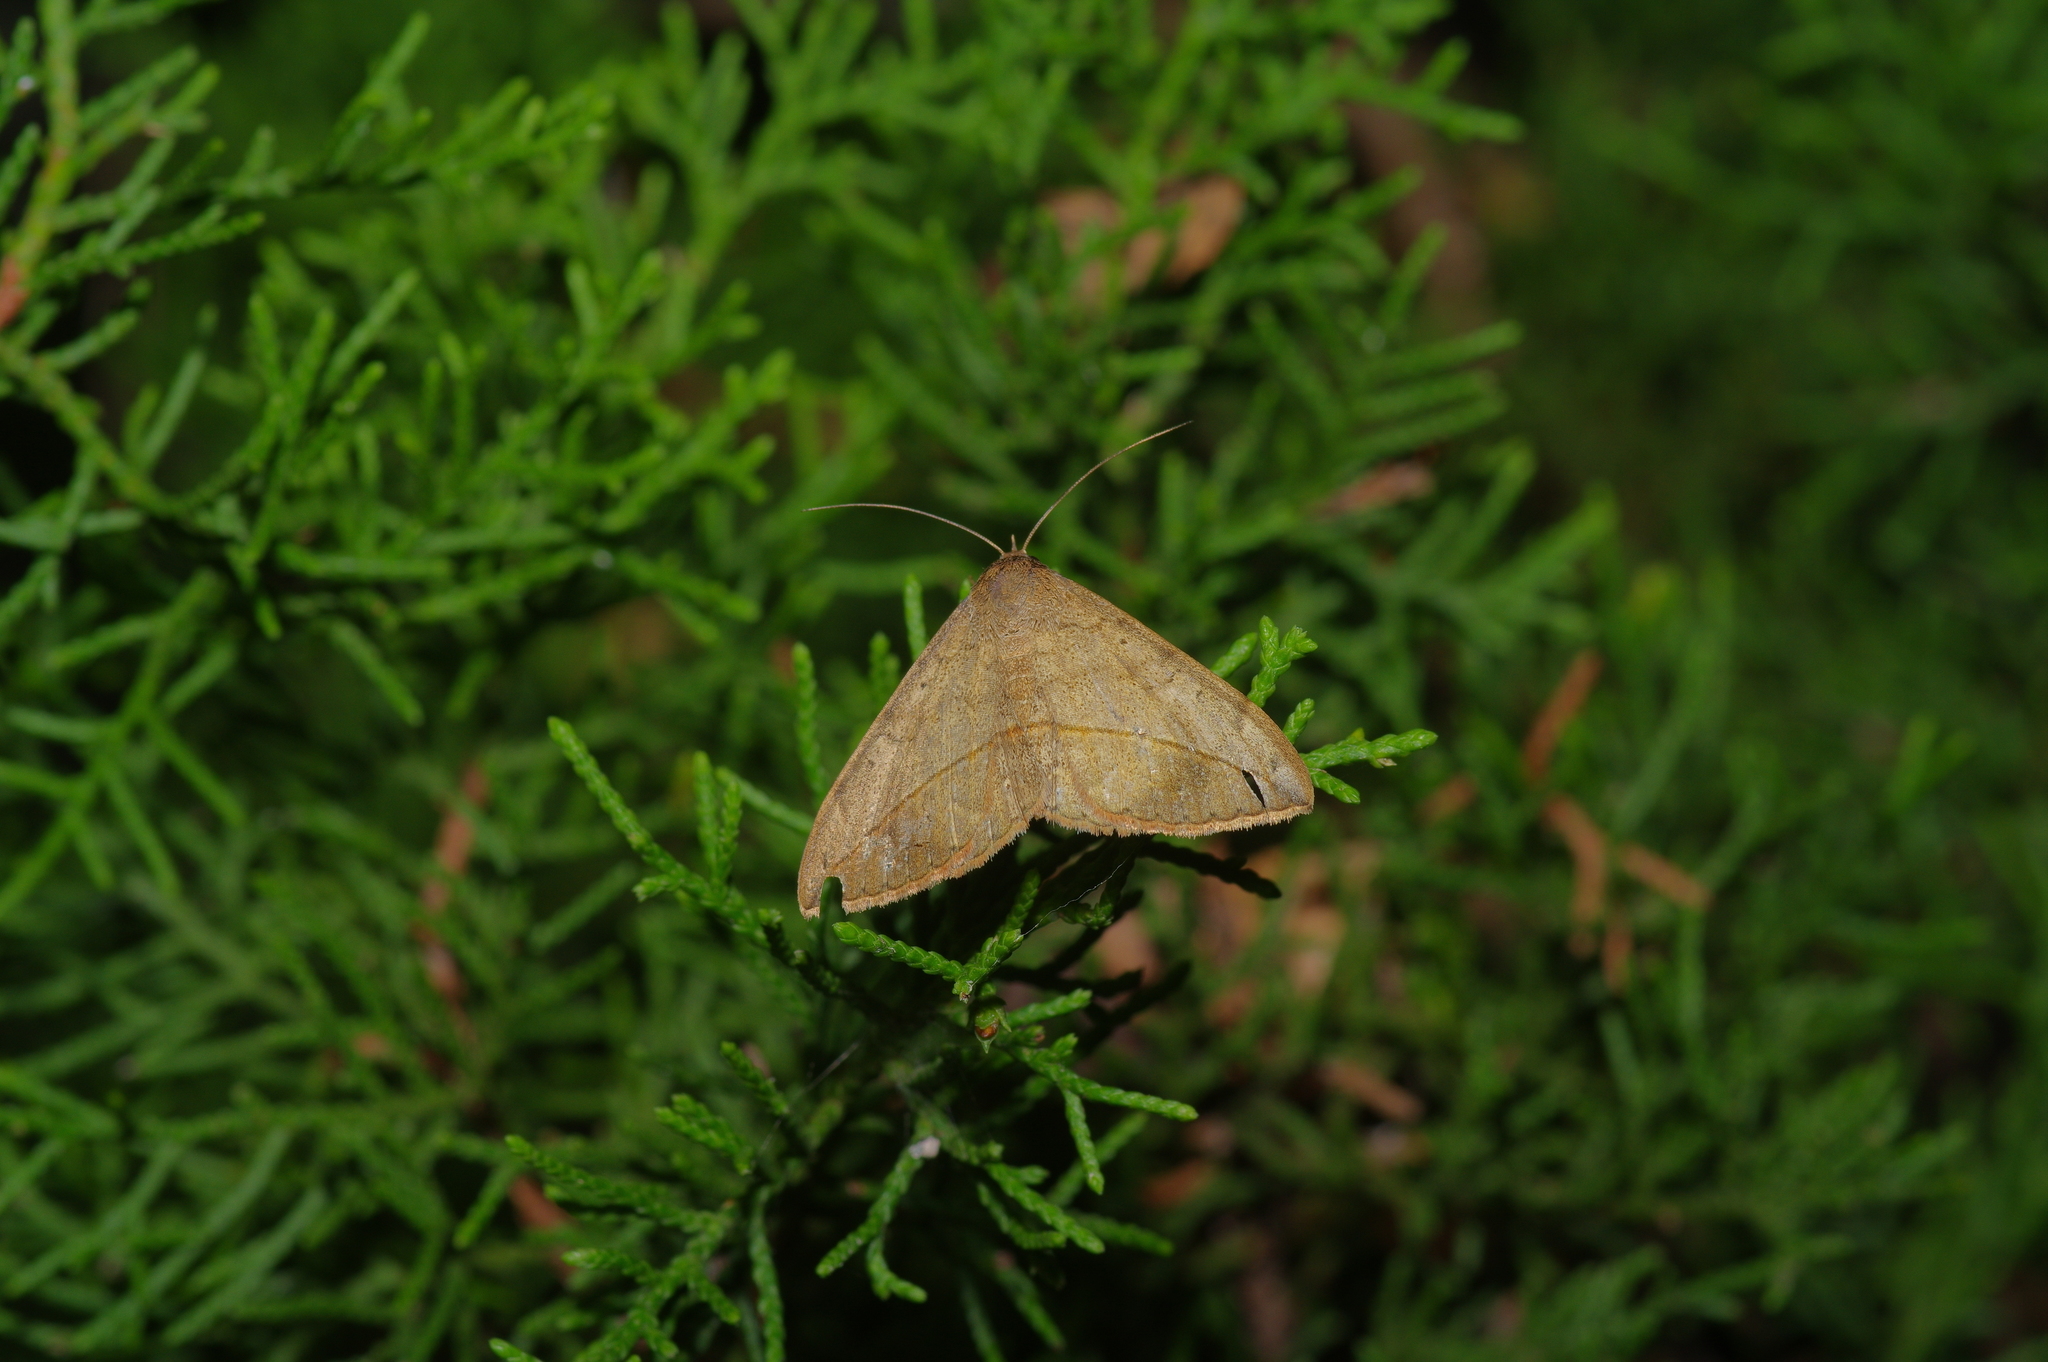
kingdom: Animalia
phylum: Arthropoda
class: Insecta
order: Lepidoptera
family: Erebidae
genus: Anticarsia
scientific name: Anticarsia gemmatalis
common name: Cutworm moth
